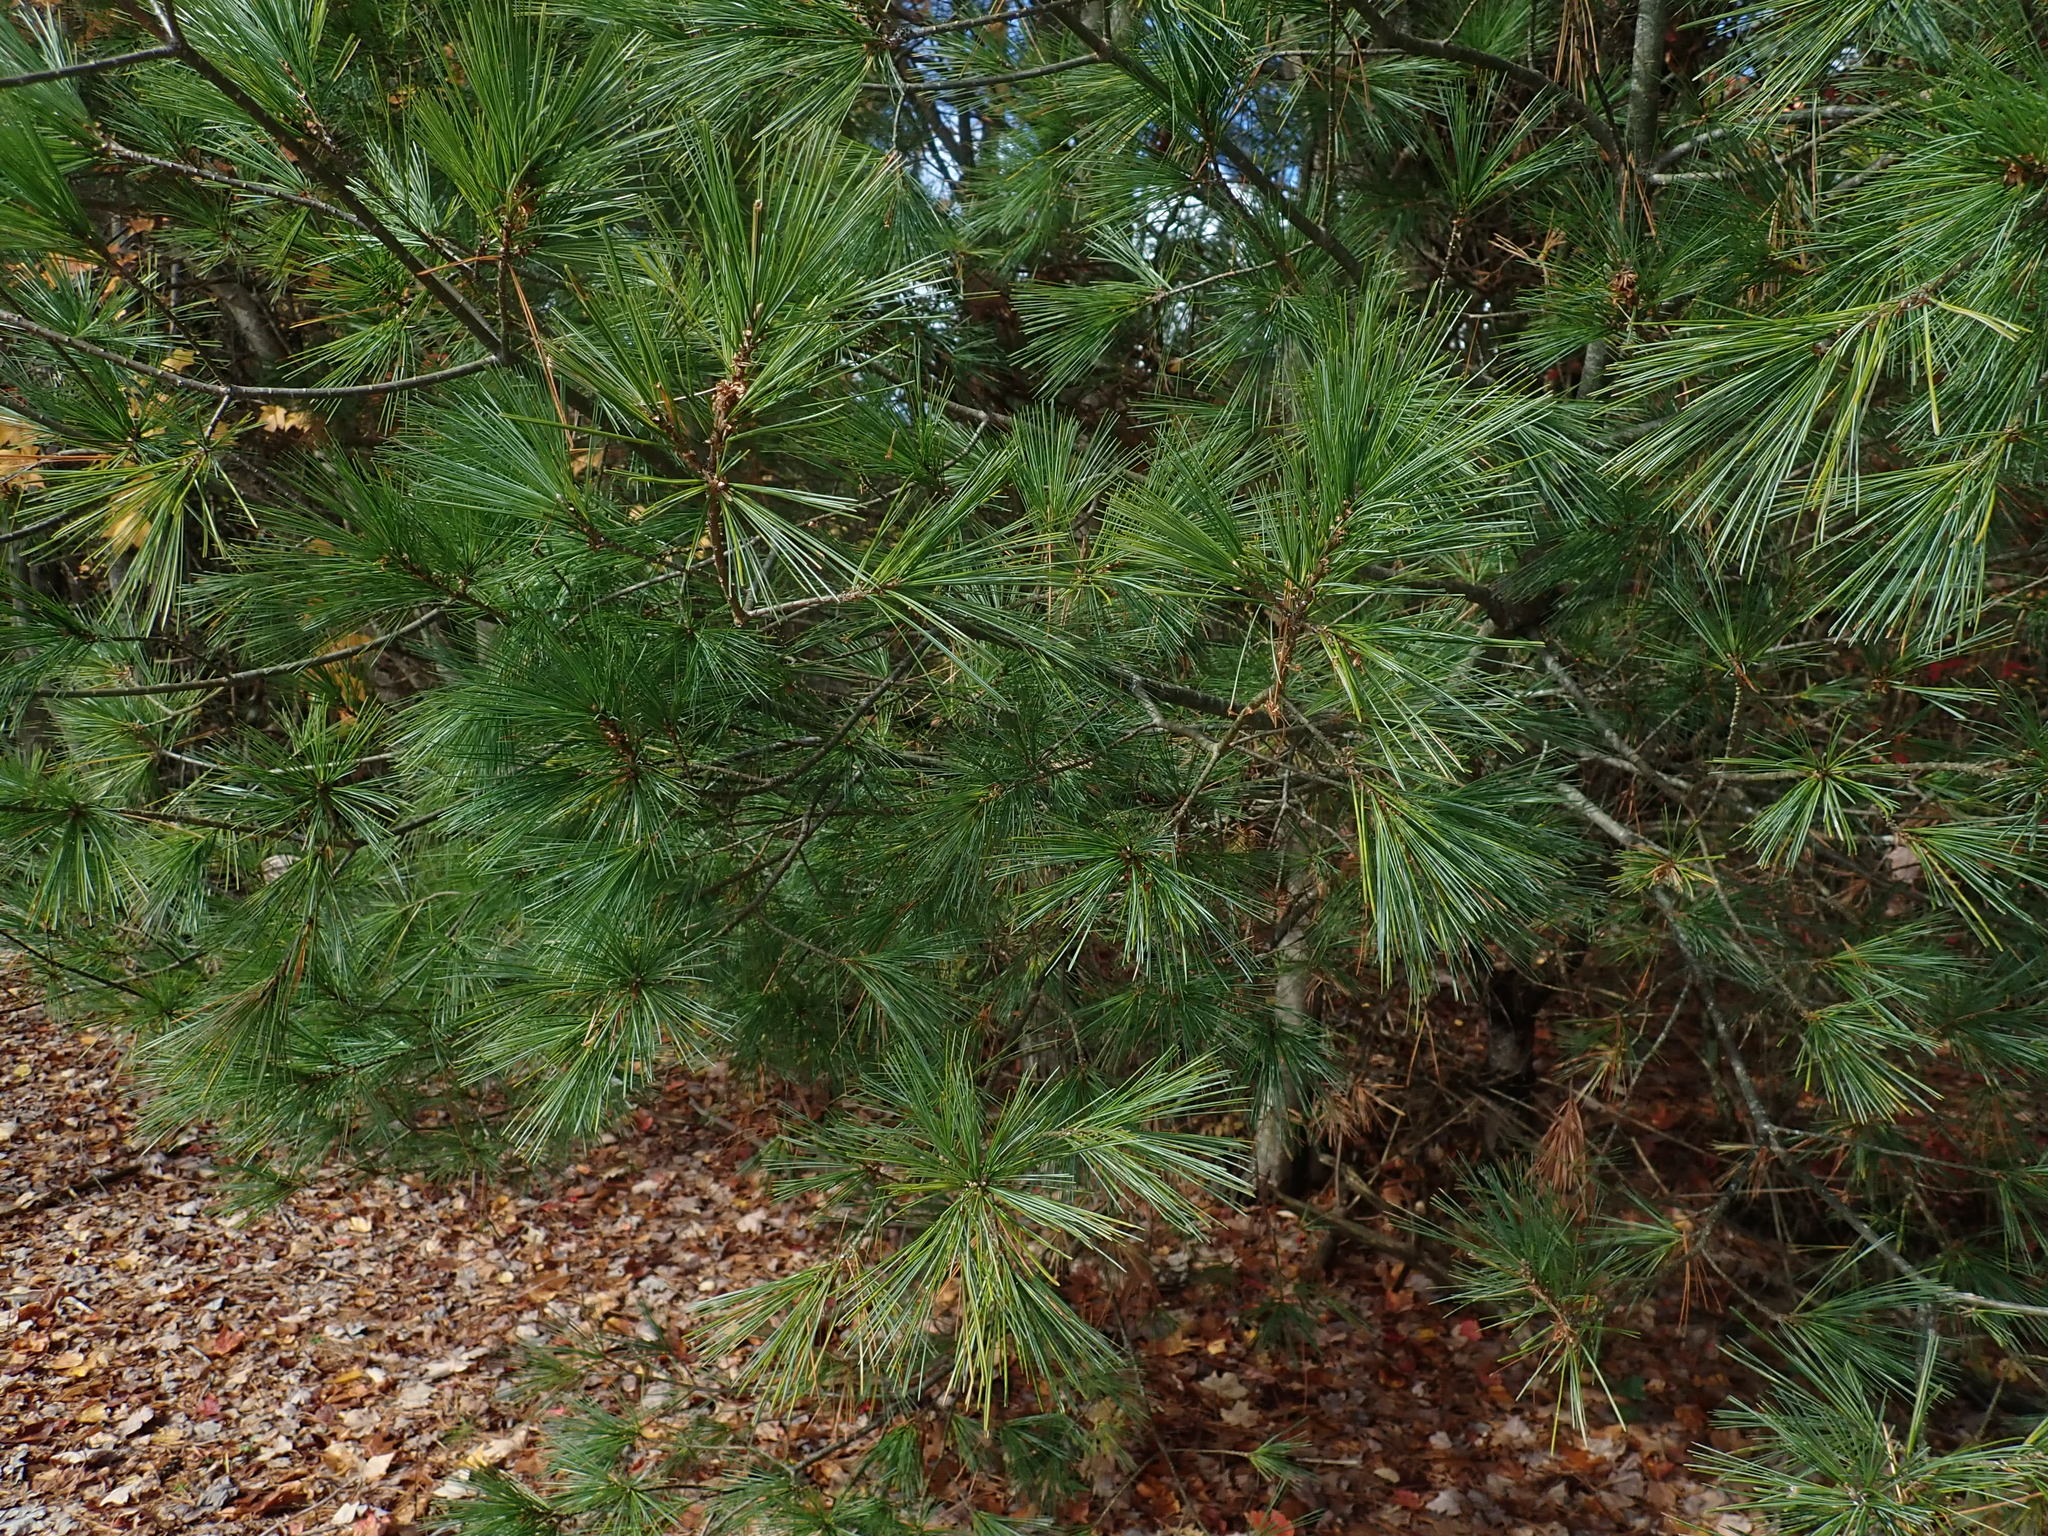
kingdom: Plantae
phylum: Tracheophyta
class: Pinopsida
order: Pinales
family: Pinaceae
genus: Pinus
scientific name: Pinus strobus
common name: Weymouth pine
